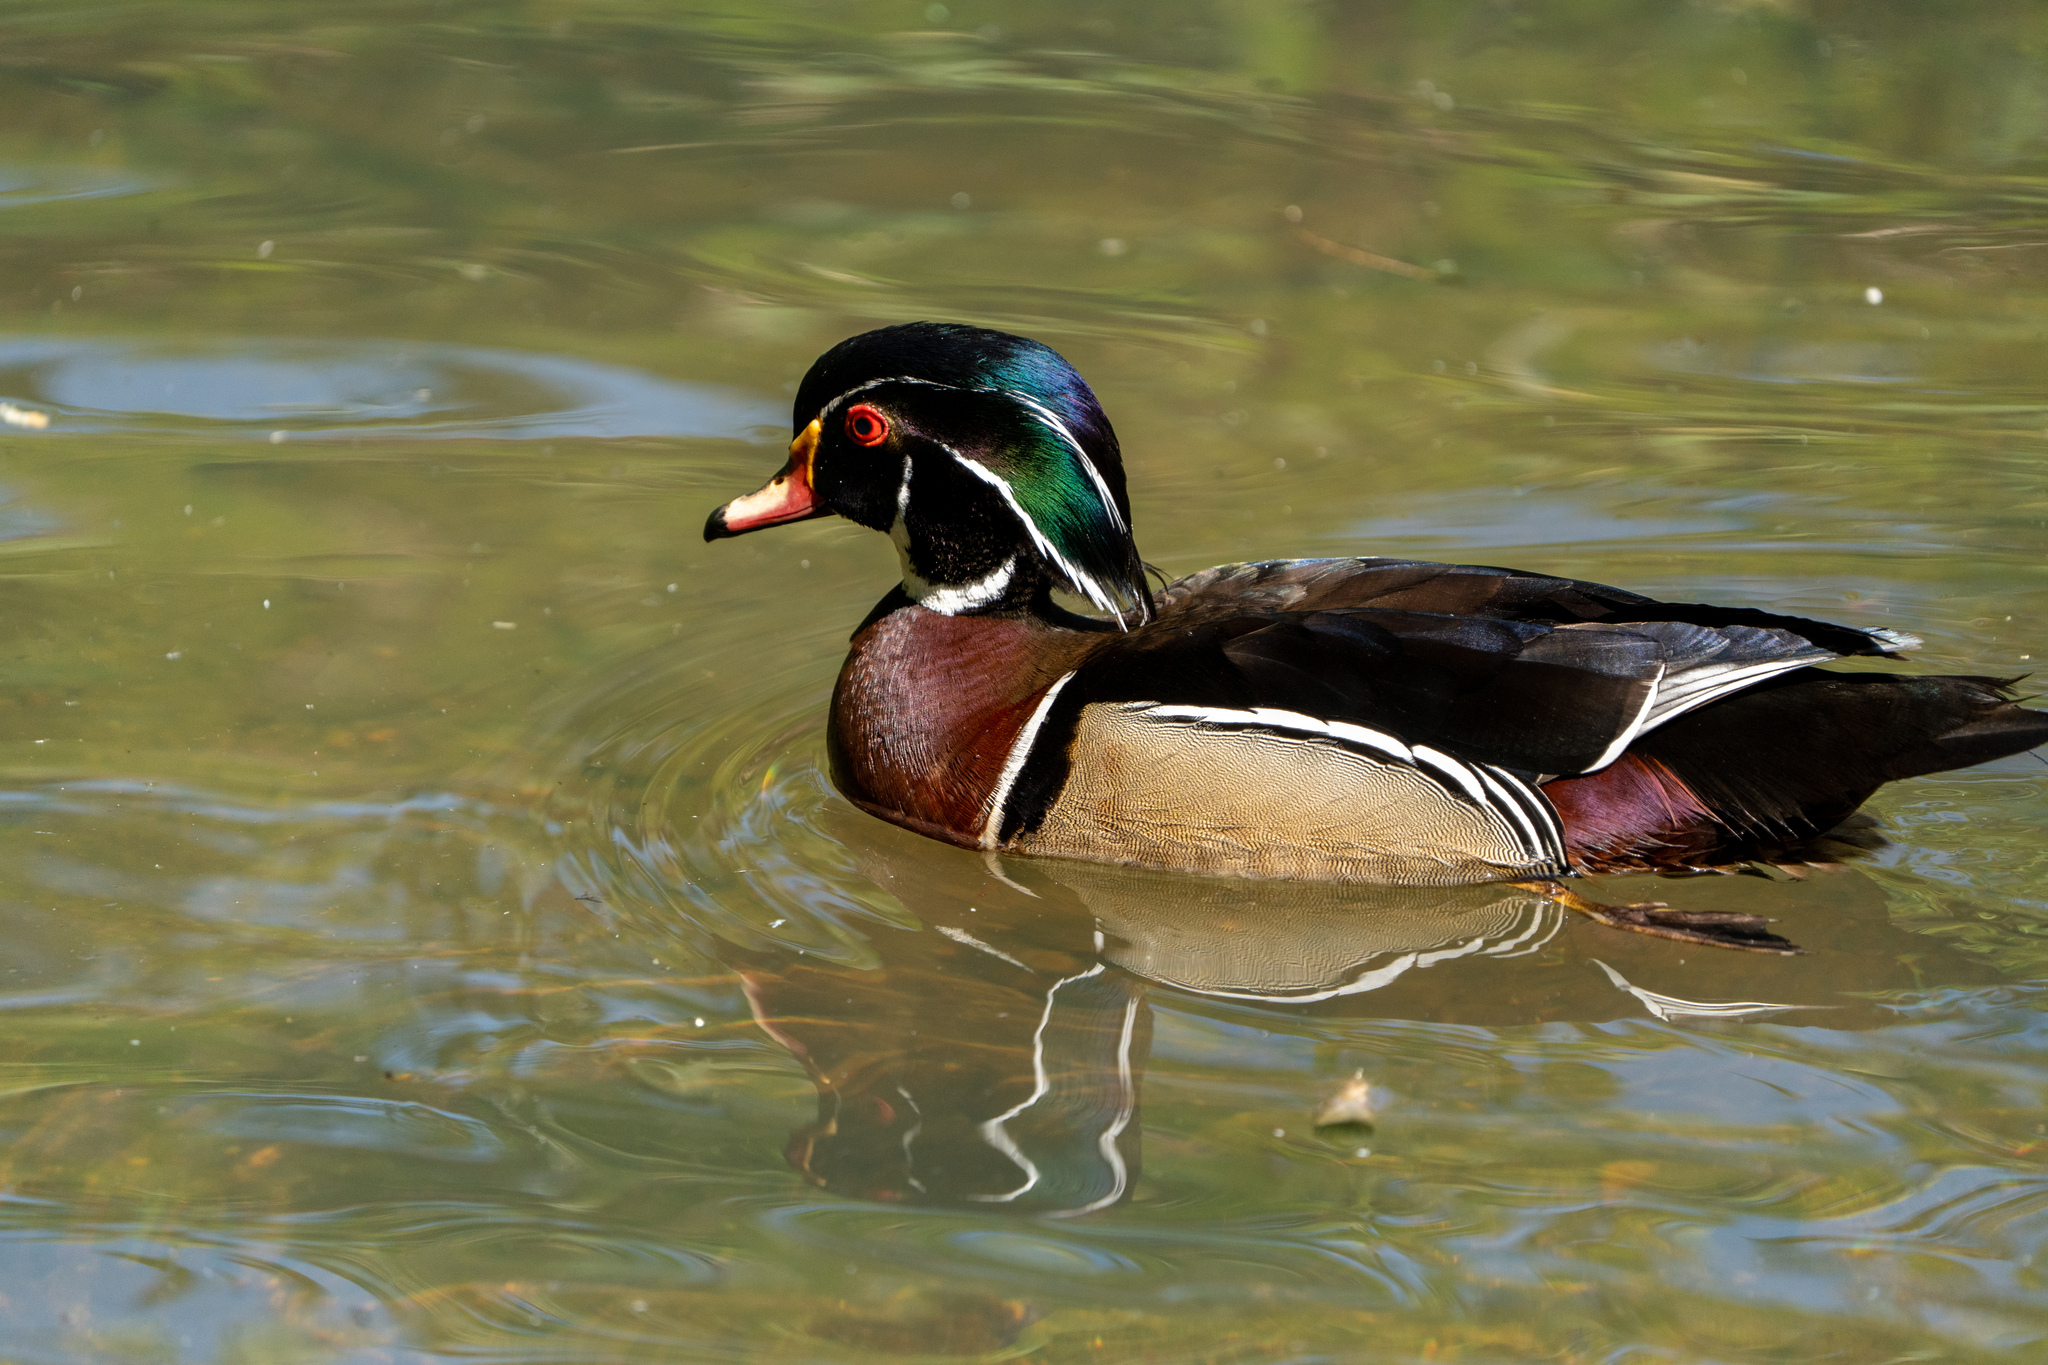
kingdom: Animalia
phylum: Chordata
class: Aves
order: Anseriformes
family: Anatidae
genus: Aix
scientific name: Aix sponsa
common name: Wood duck
